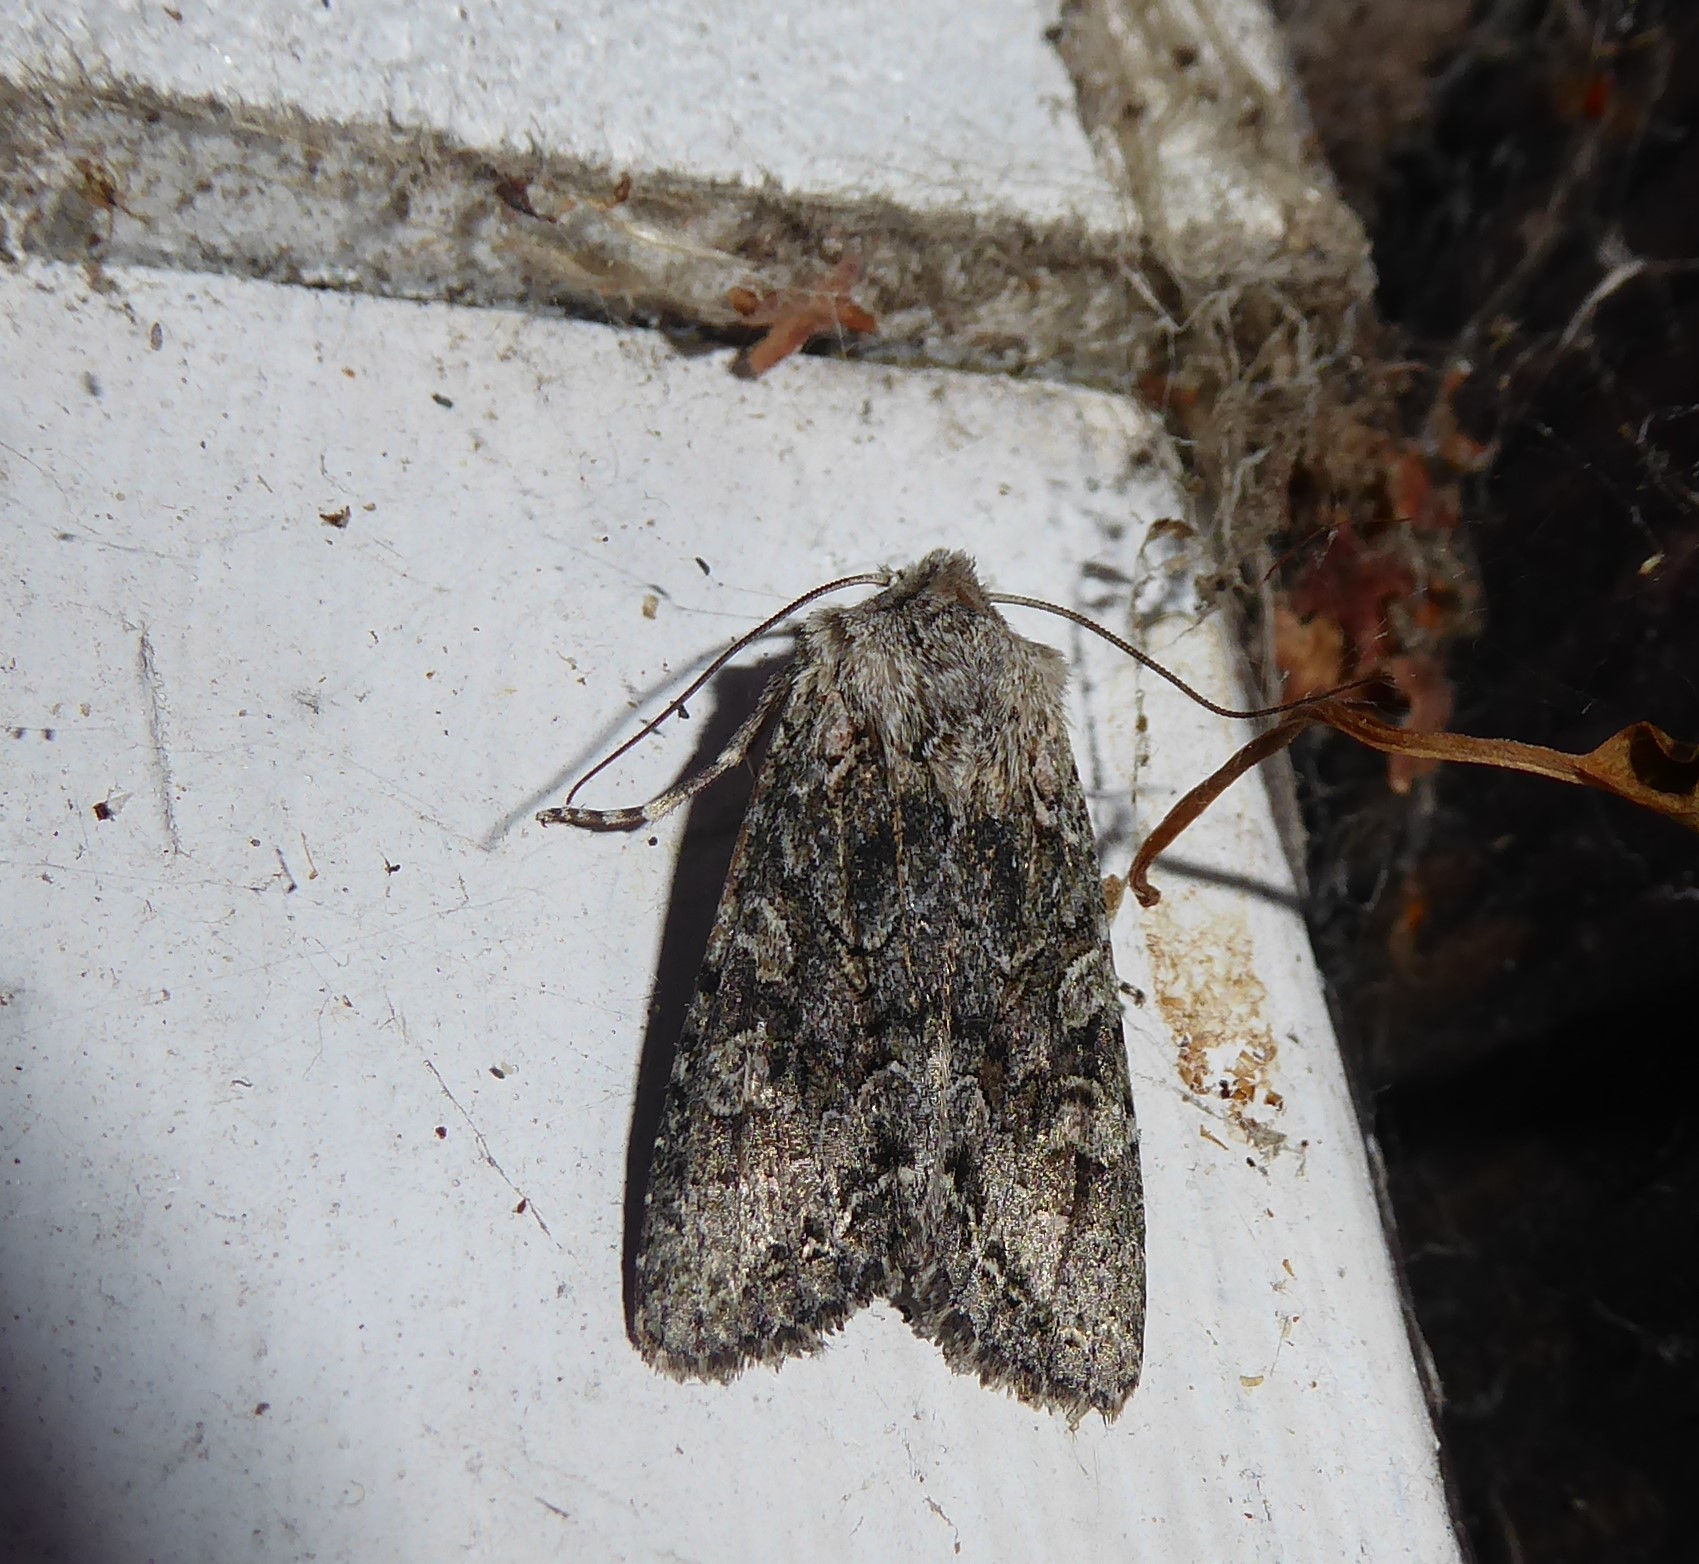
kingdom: Animalia
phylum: Arthropoda
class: Insecta
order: Lepidoptera
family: Noctuidae
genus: Ichneutica
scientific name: Ichneutica mutans
